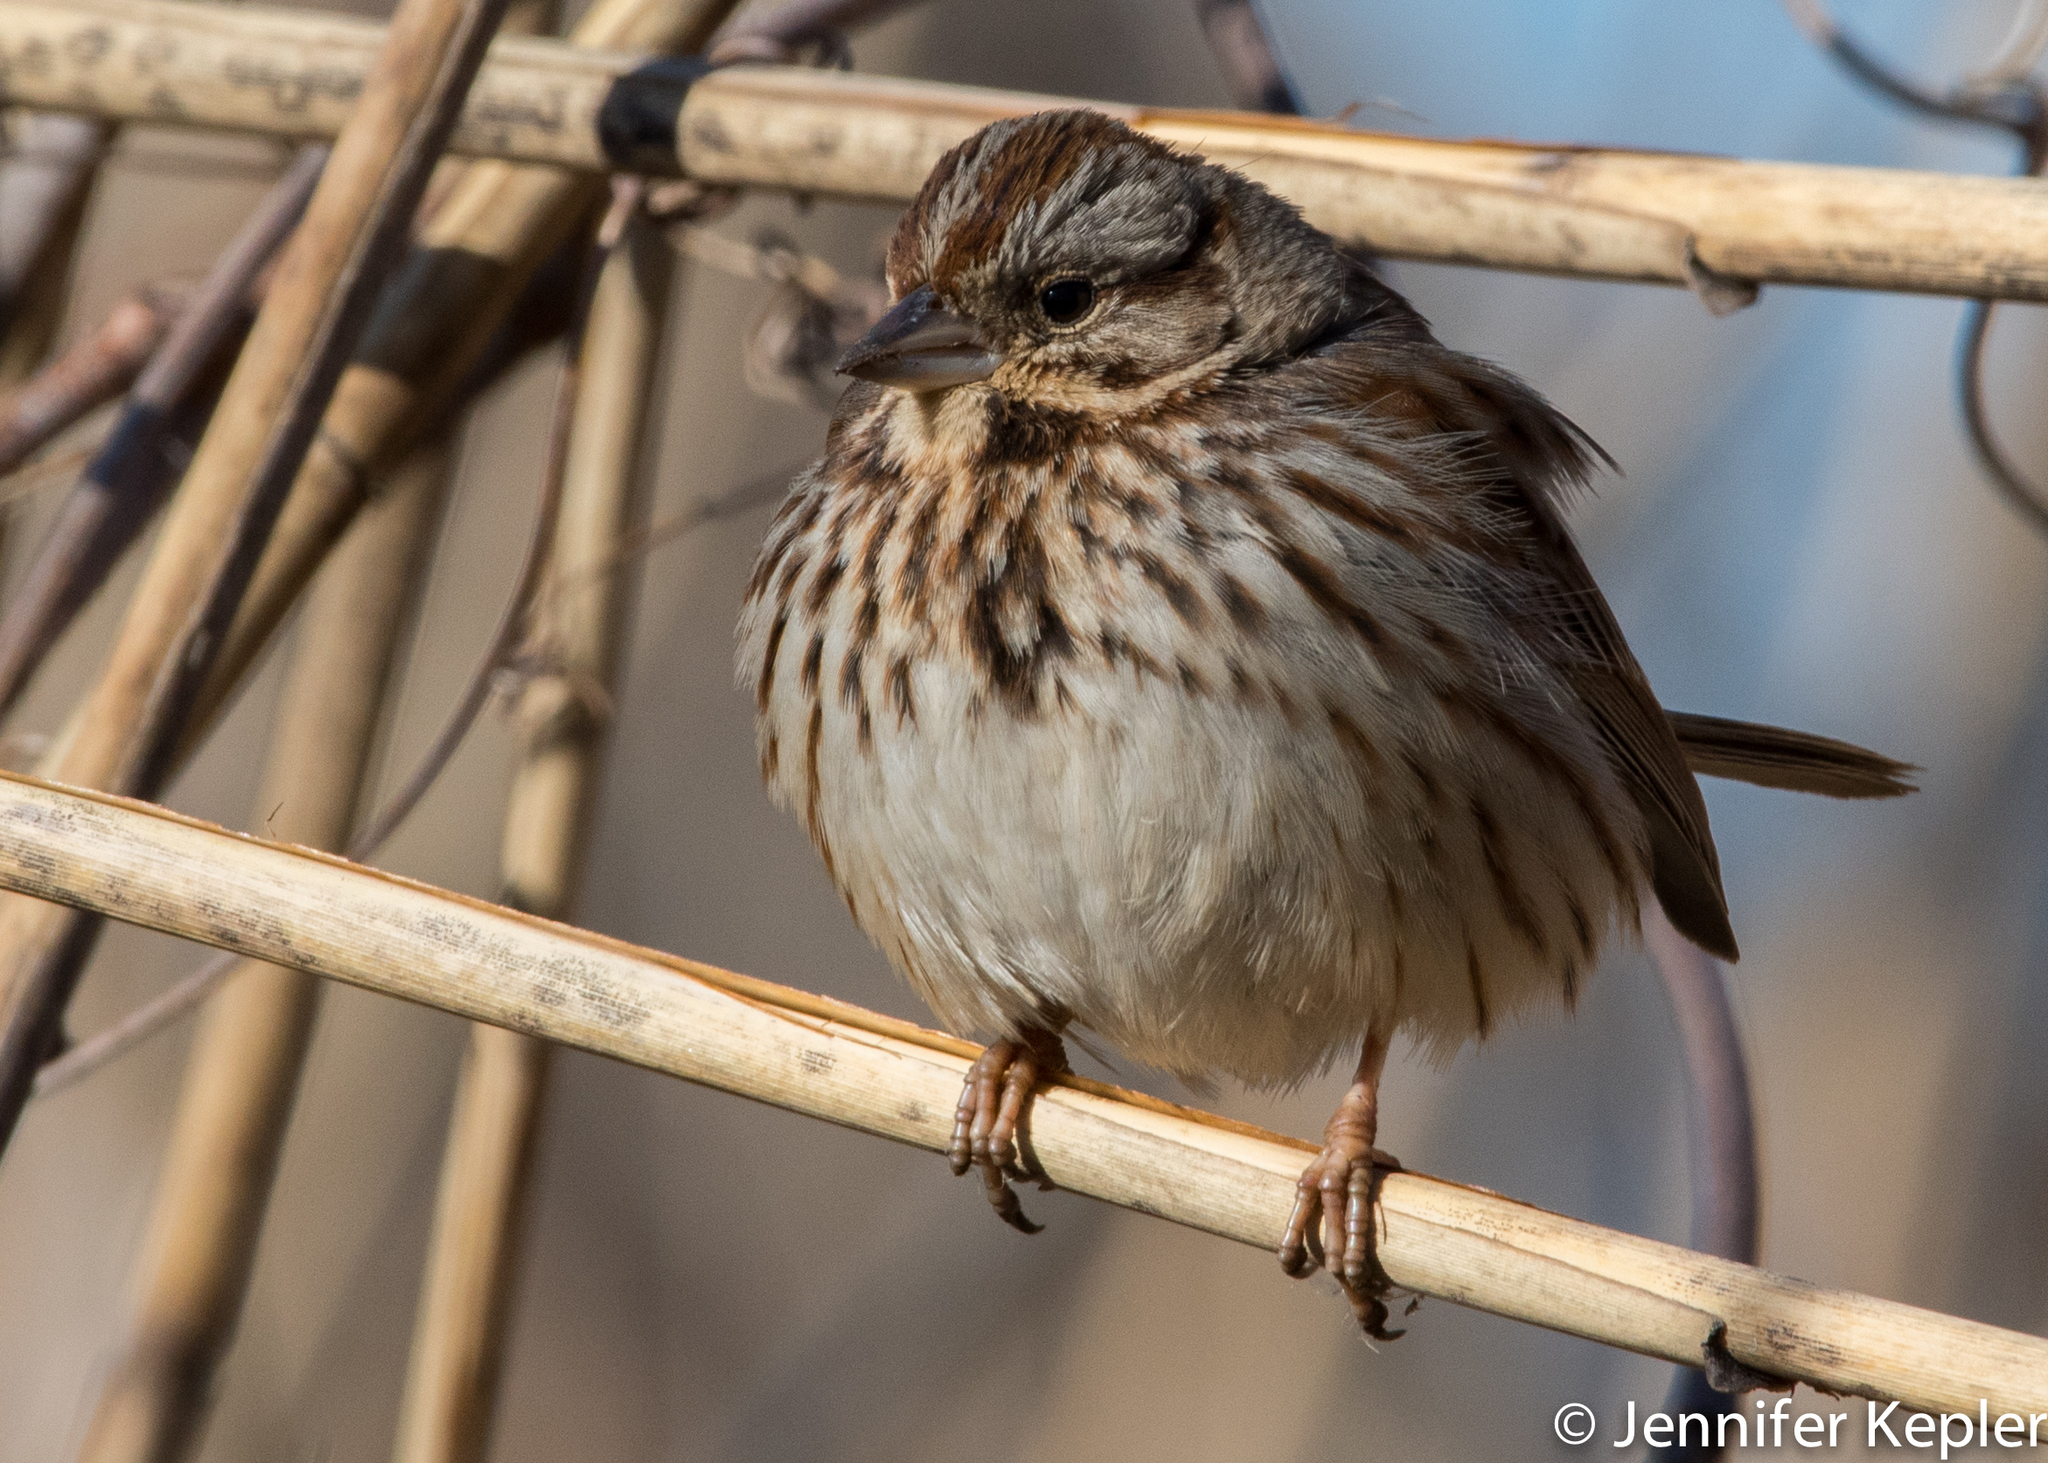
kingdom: Animalia
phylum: Chordata
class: Aves
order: Passeriformes
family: Passerellidae
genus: Melospiza
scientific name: Melospiza melodia
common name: Song sparrow
